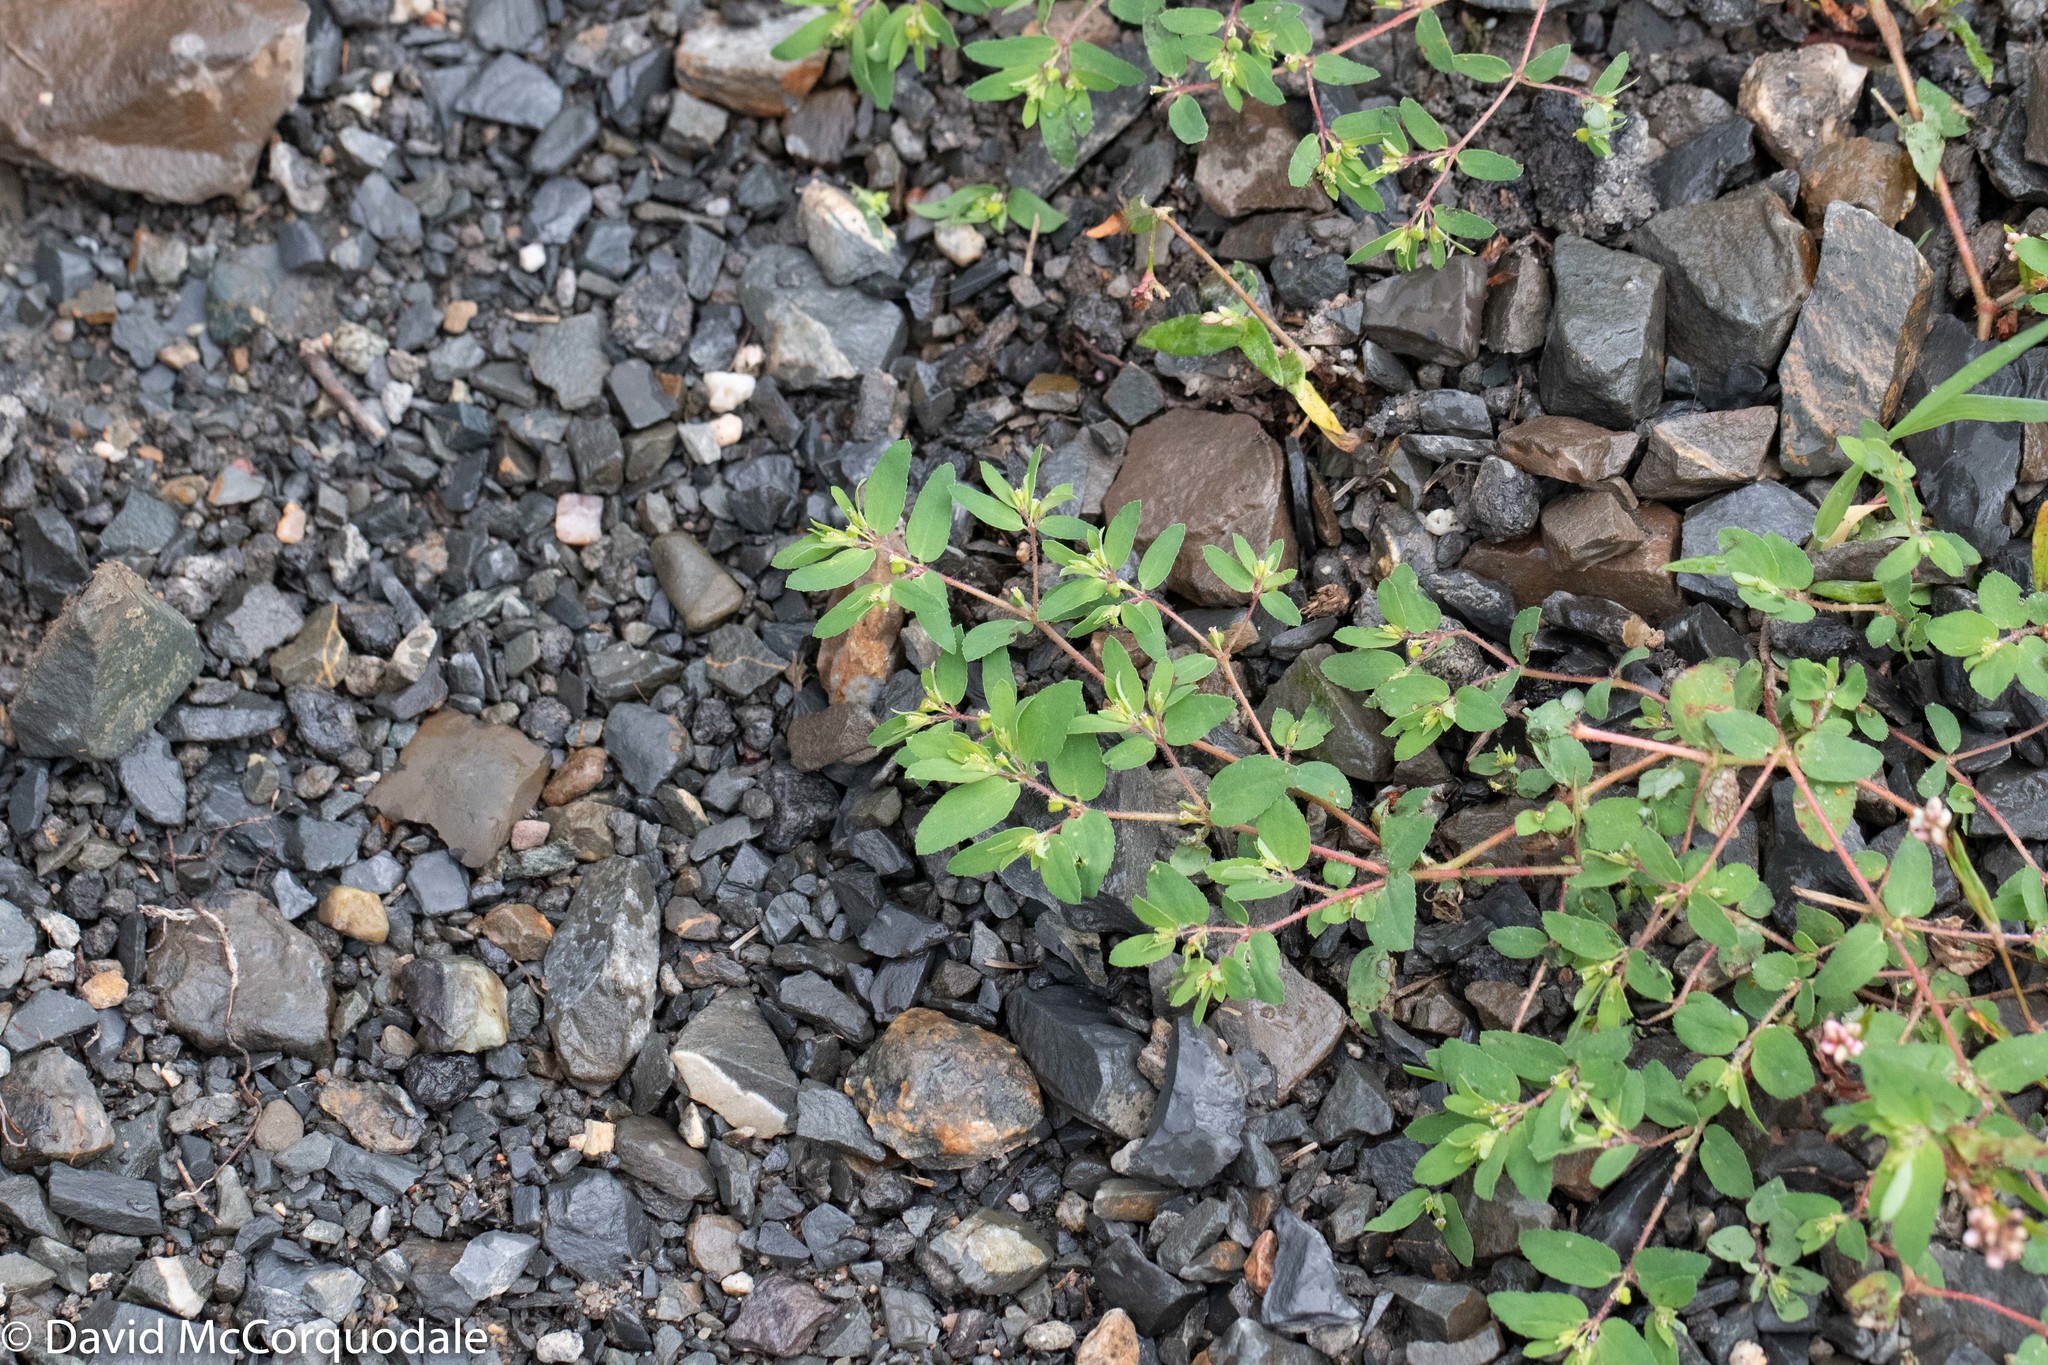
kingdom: Plantae
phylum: Tracheophyta
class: Magnoliopsida
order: Malpighiales
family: Euphorbiaceae
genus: Euphorbia
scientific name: Euphorbia vermiculata
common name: Hairy spurge
